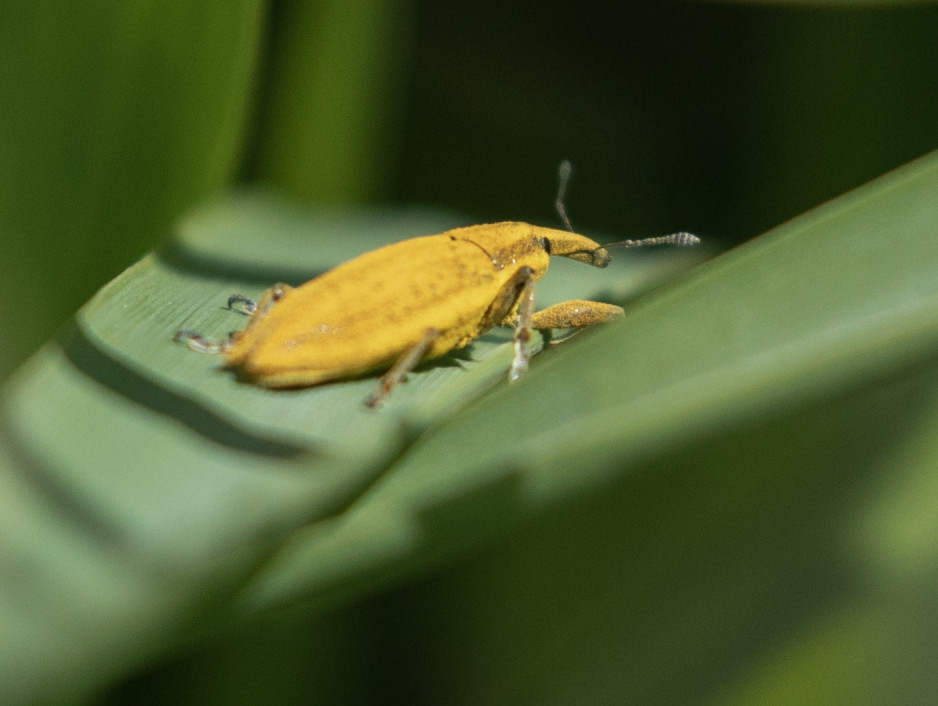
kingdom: Animalia
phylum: Arthropoda
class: Insecta
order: Coleoptera
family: Curculionidae
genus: Lixus
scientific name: Lixus iridis
